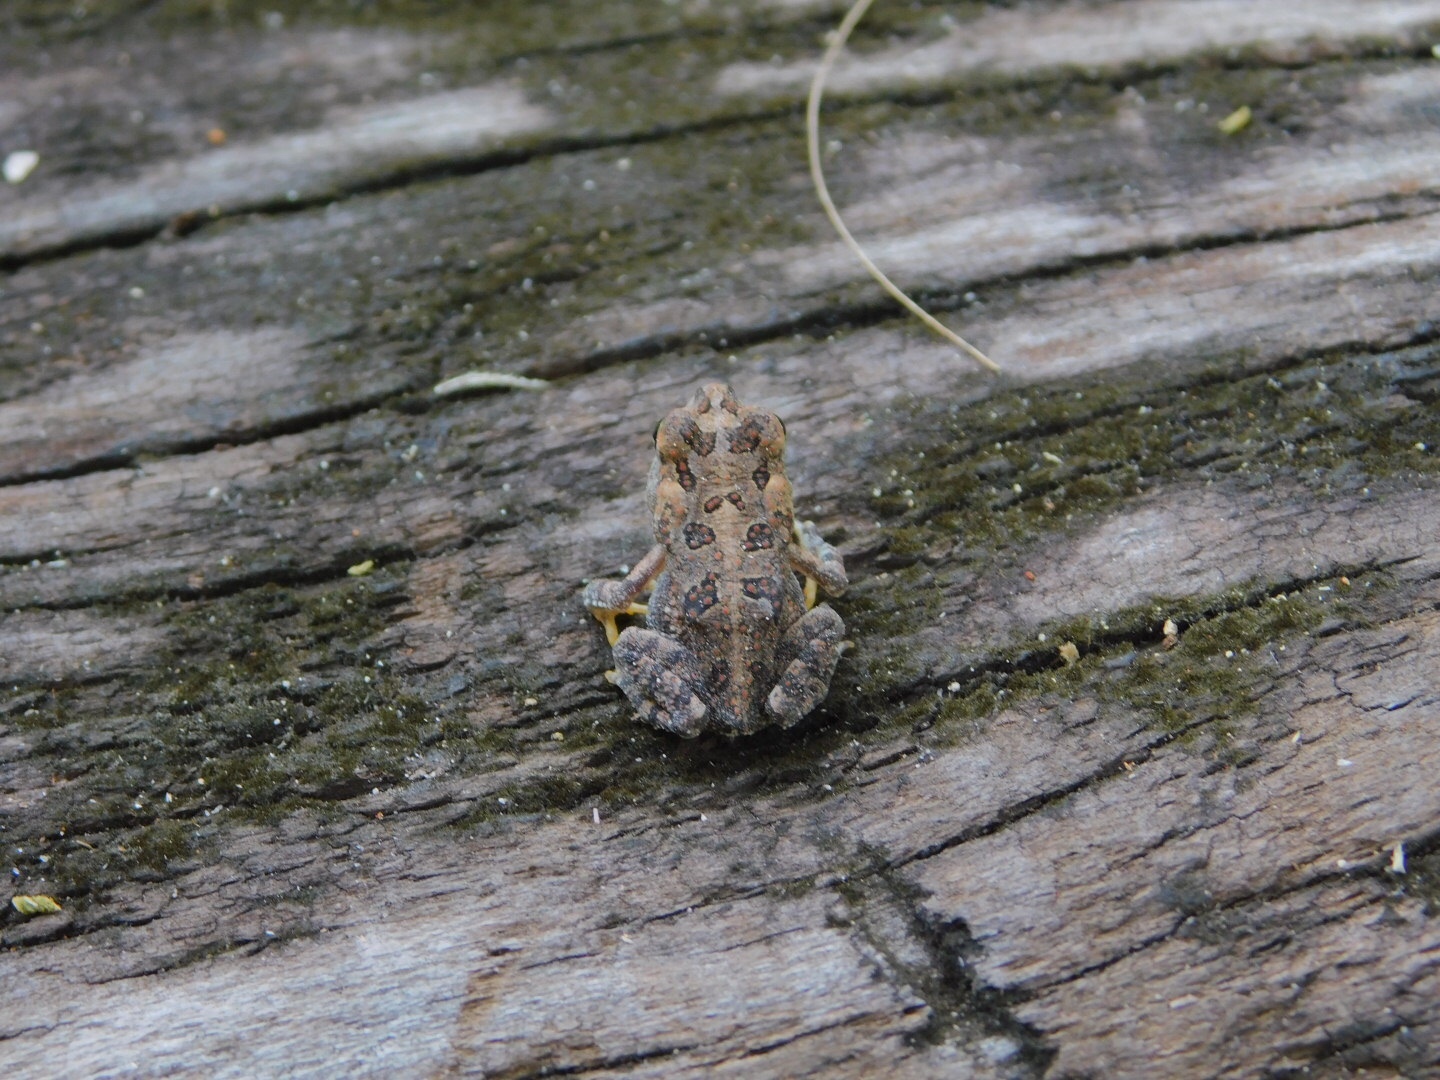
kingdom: Animalia
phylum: Chordata
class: Amphibia
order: Anura
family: Bufonidae
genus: Anaxyrus
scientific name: Anaxyrus terrestris
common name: Southern toad
